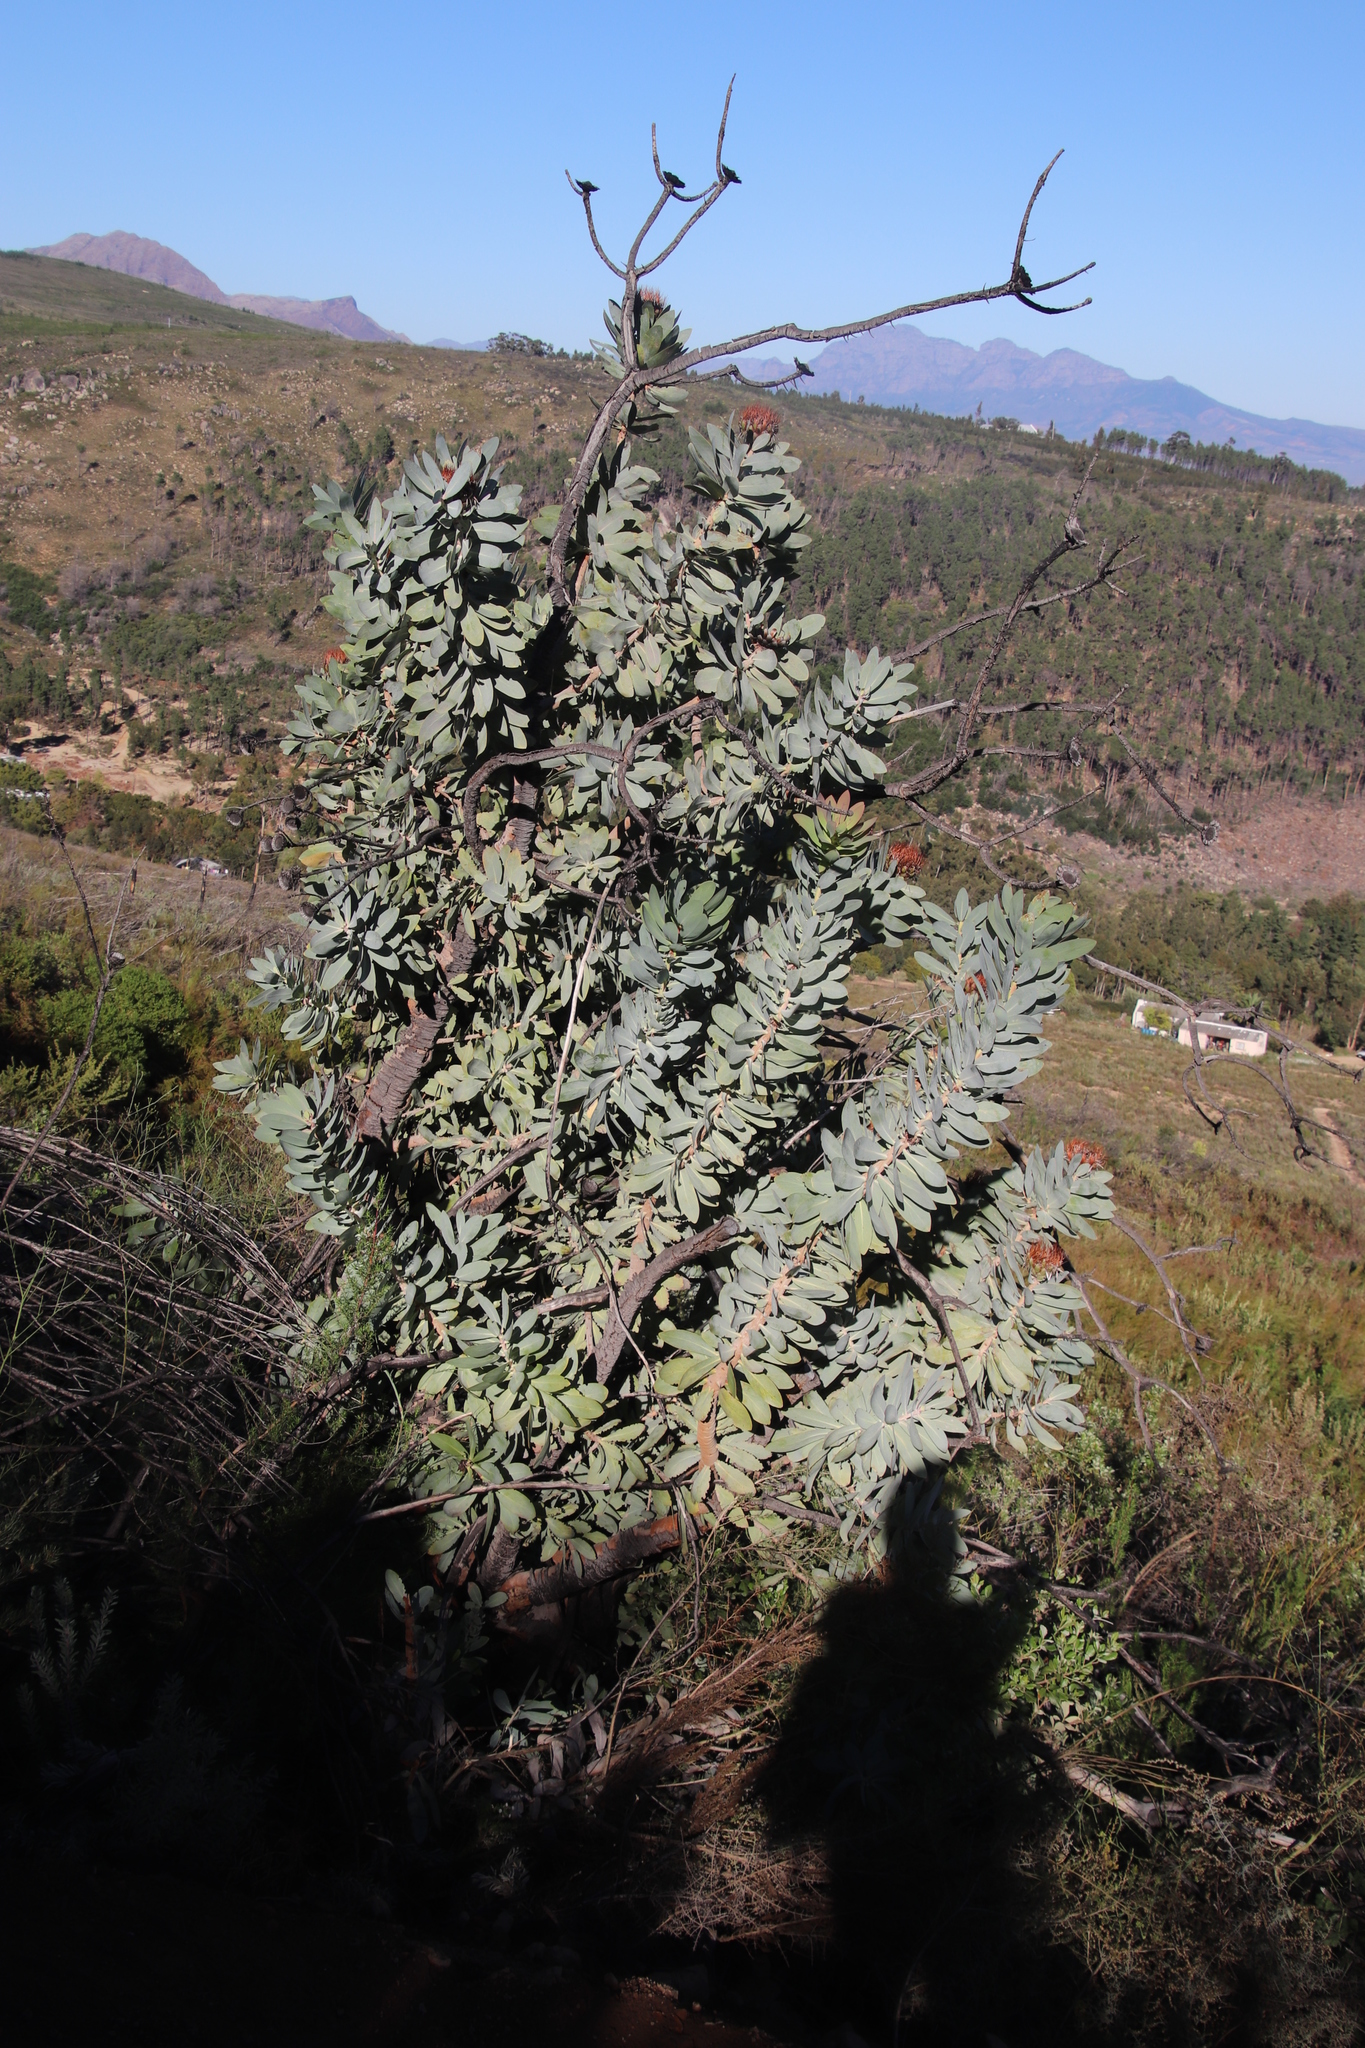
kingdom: Plantae
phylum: Tracheophyta
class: Magnoliopsida
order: Proteales
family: Proteaceae
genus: Protea
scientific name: Protea nitida
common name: Tree protea
